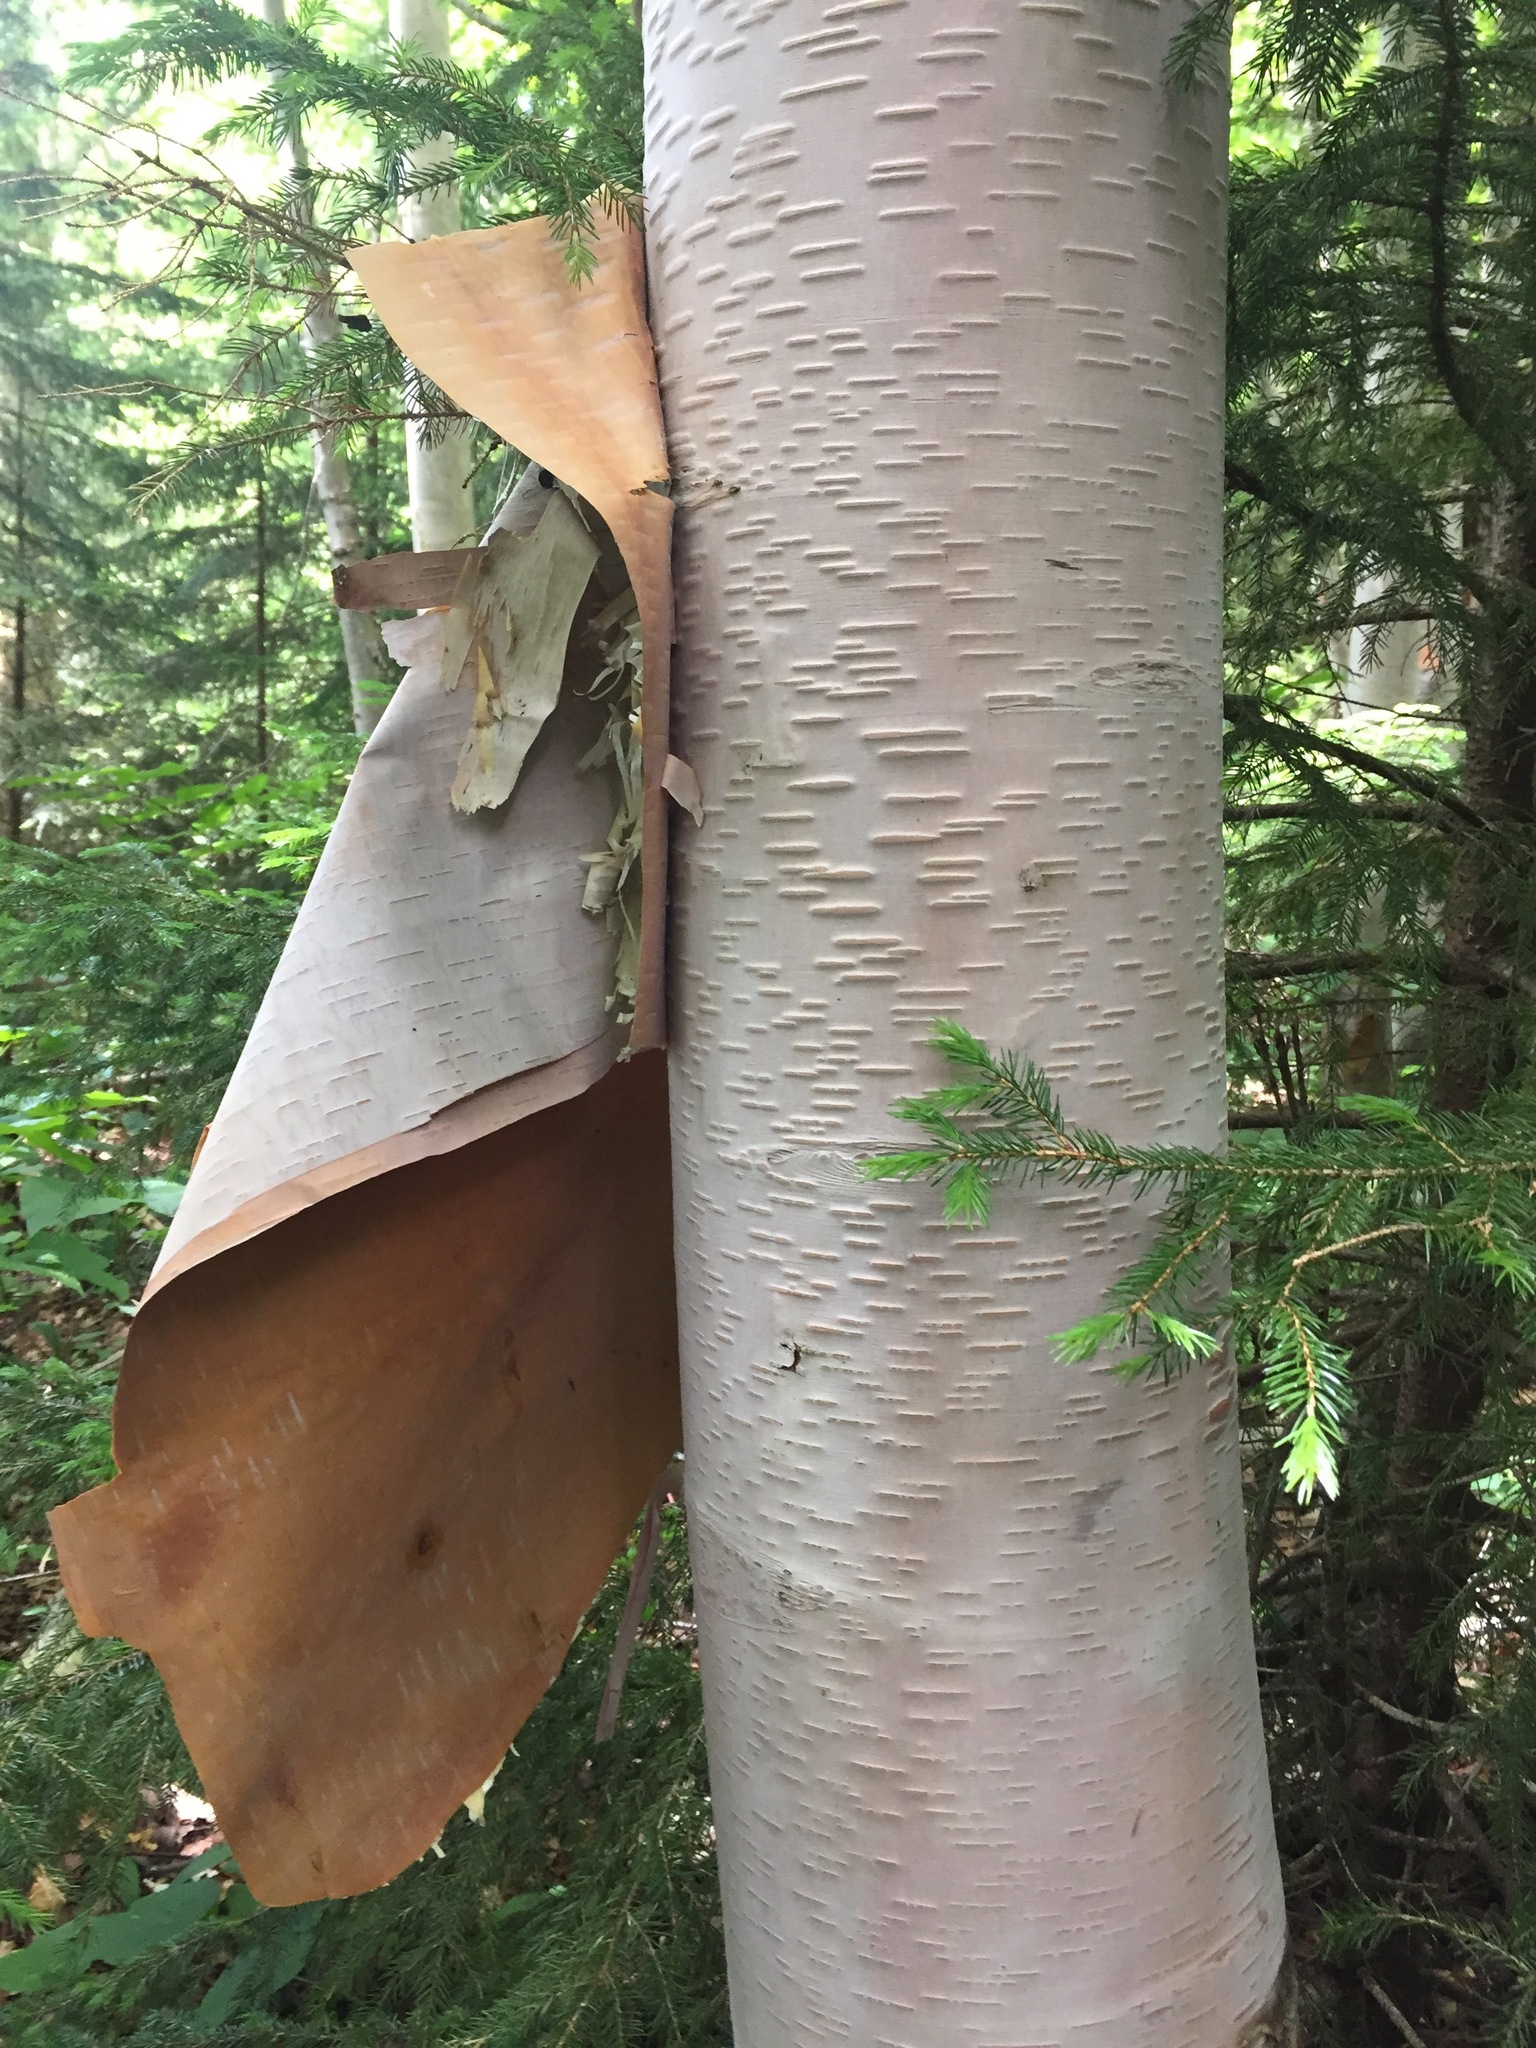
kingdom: Plantae
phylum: Tracheophyta
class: Magnoliopsida
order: Fagales
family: Betulaceae
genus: Betula
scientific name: Betula papyrifera
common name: Paper birch
